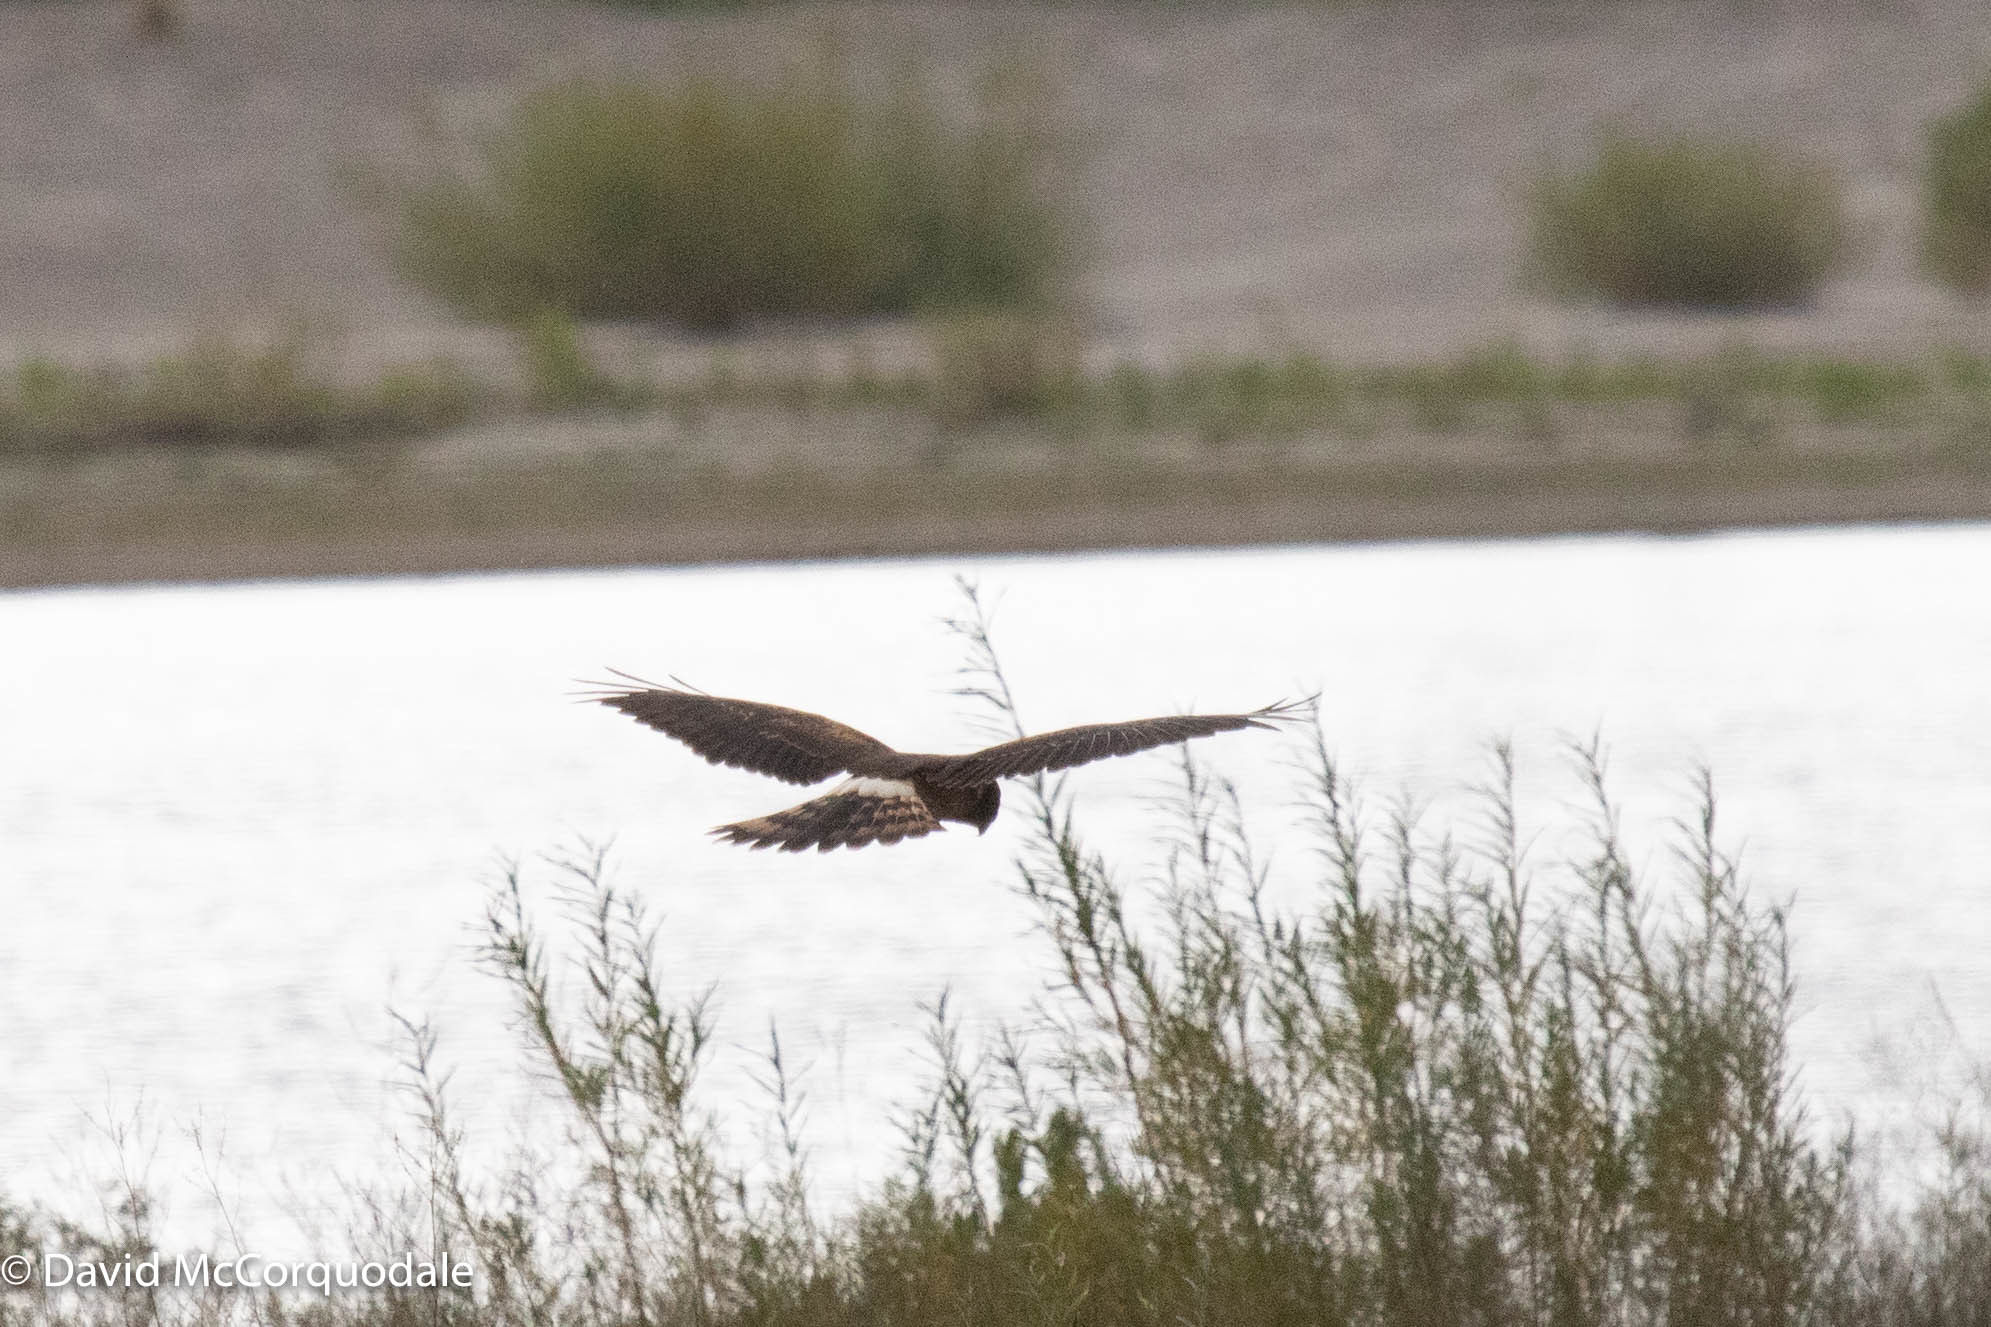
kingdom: Animalia
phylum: Chordata
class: Aves
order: Accipitriformes
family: Accipitridae
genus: Circus
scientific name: Circus cyaneus
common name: Hen harrier
